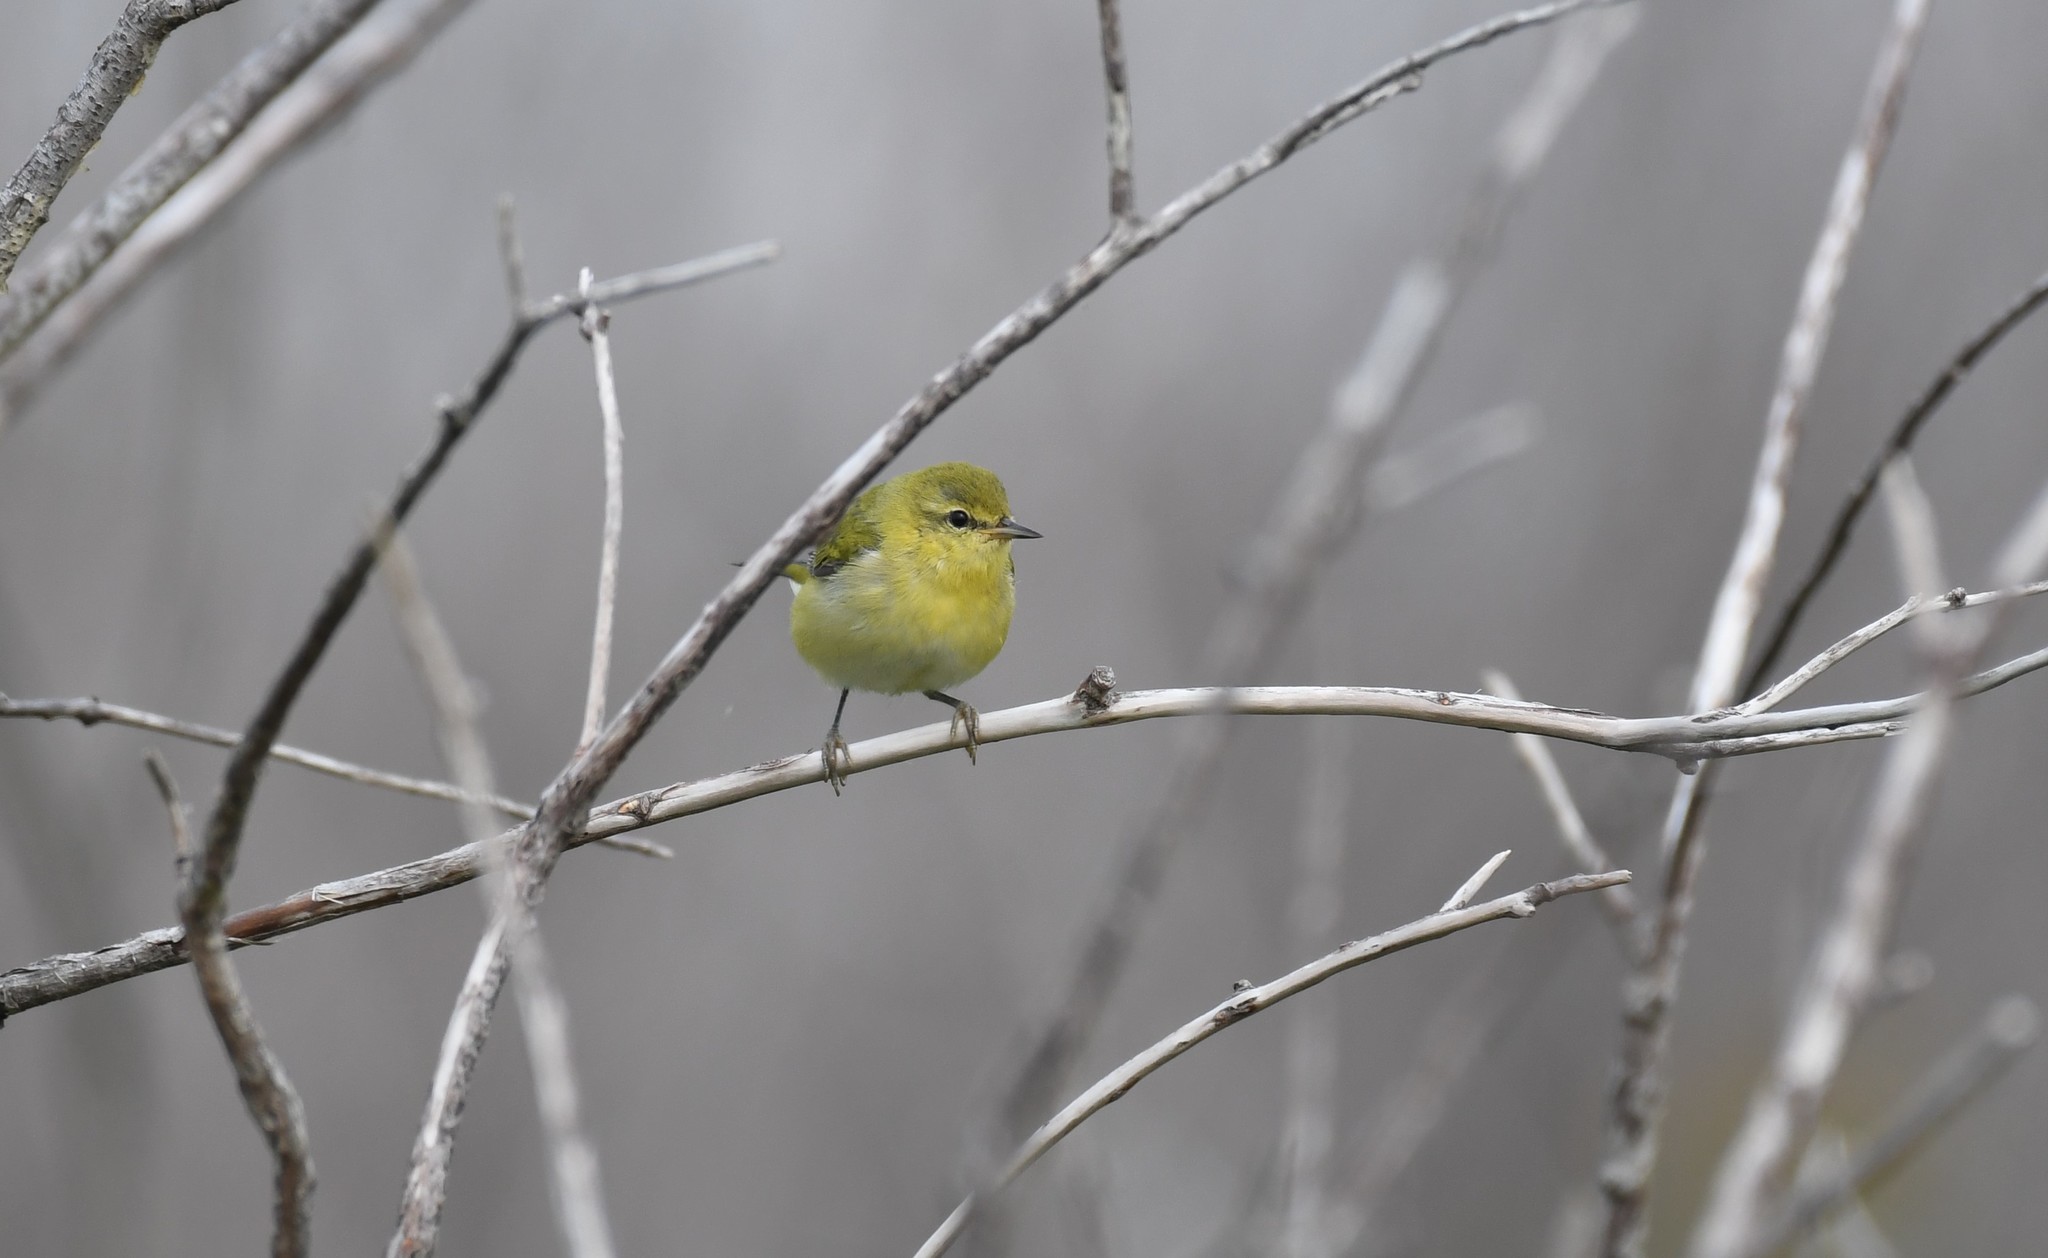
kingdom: Animalia
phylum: Chordata
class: Aves
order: Passeriformes
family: Parulidae
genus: Leiothlypis
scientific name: Leiothlypis peregrina
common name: Tennessee warbler
